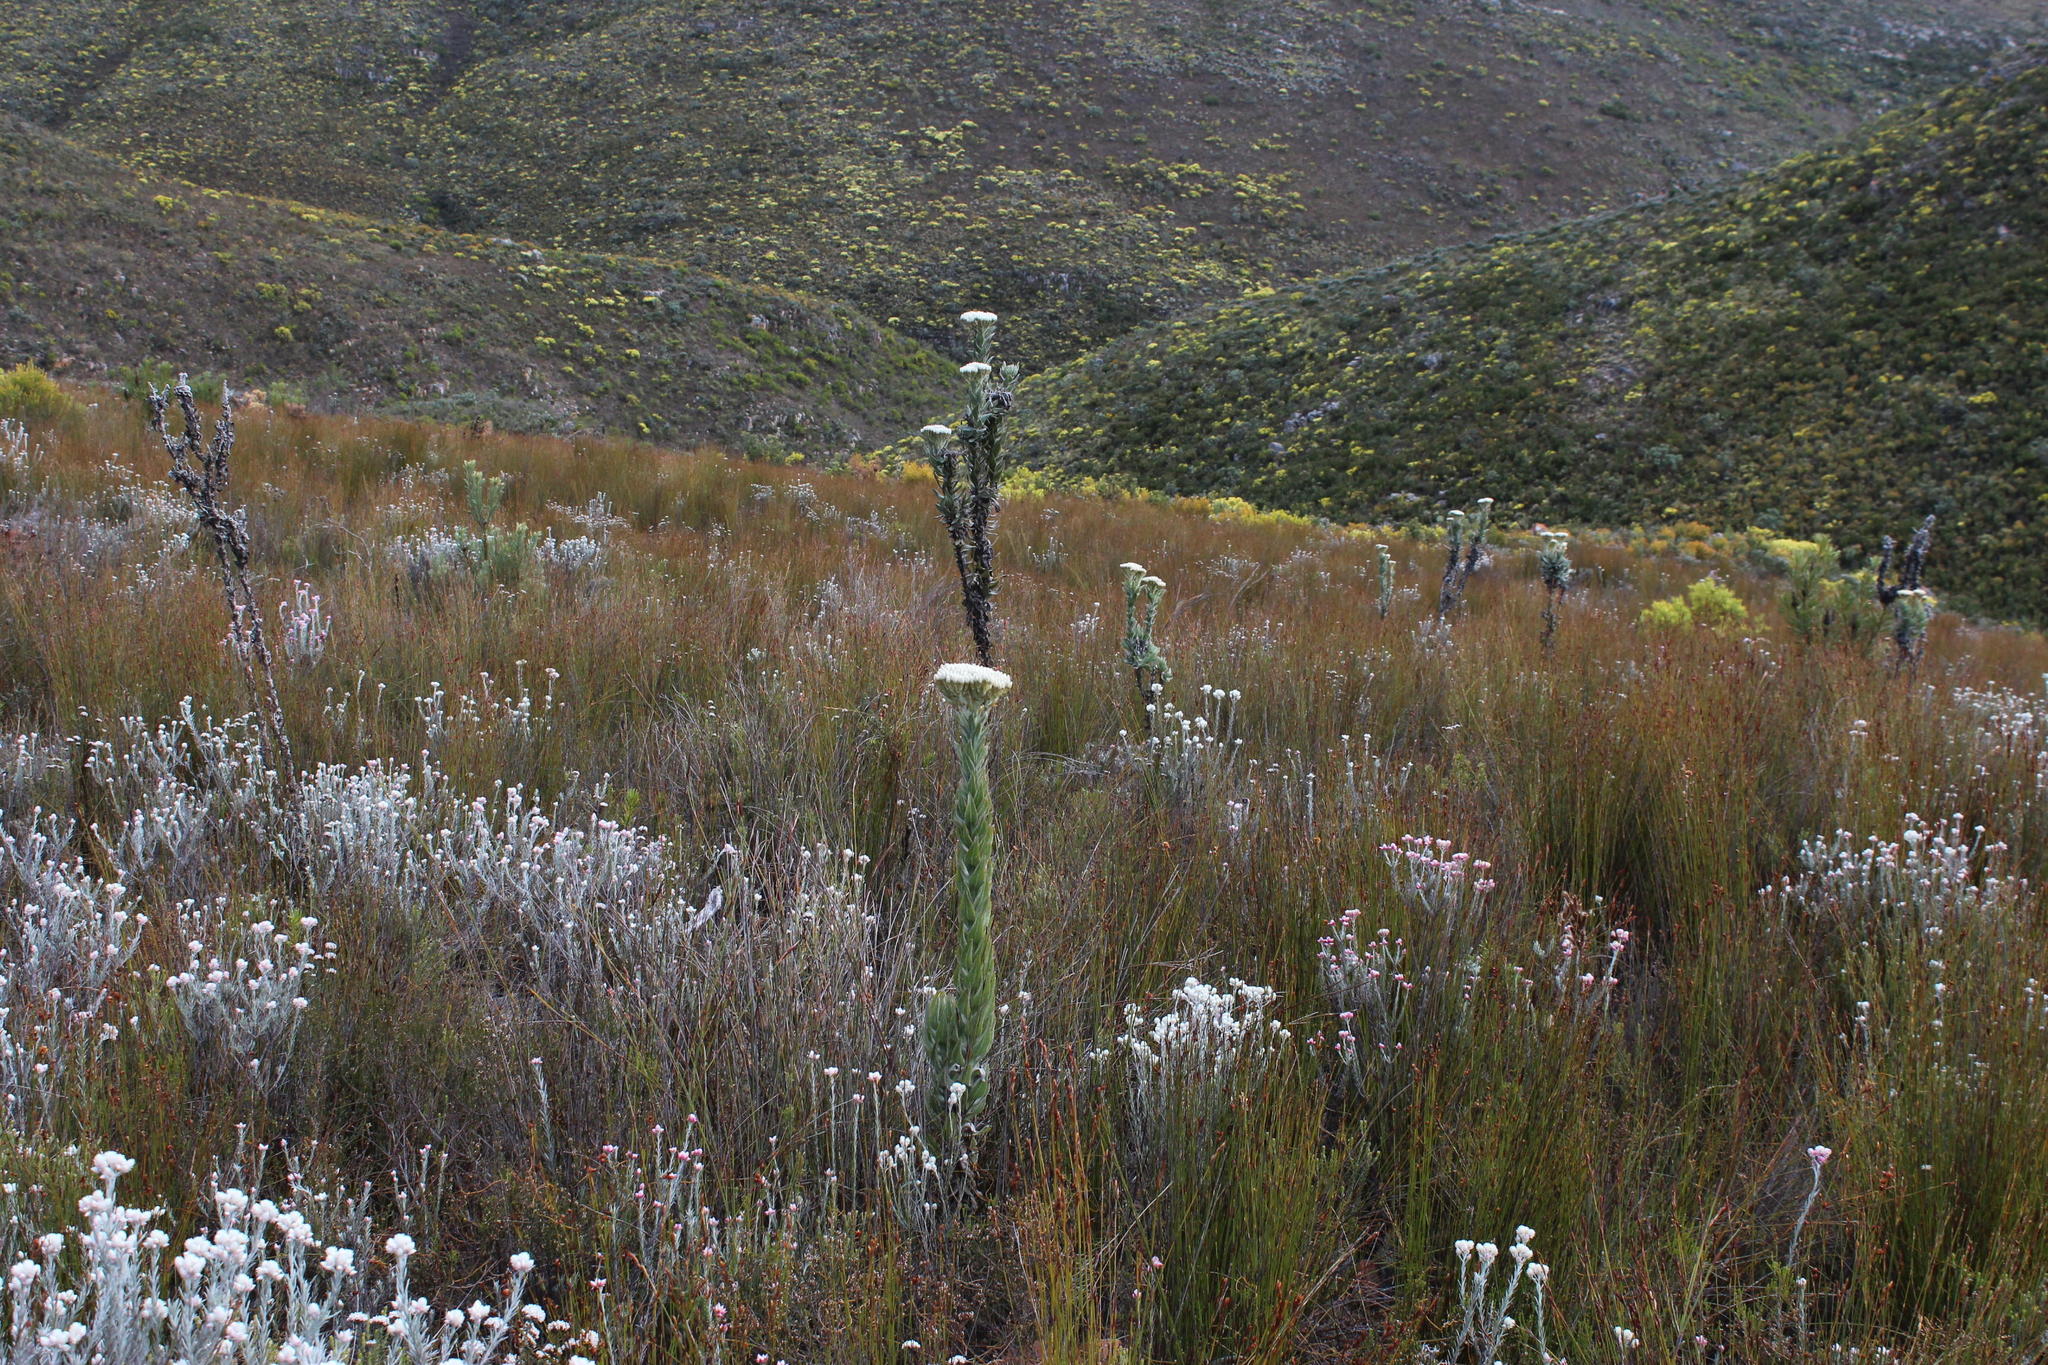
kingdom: Plantae
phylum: Tracheophyta
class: Magnoliopsida
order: Asterales
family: Asteraceae
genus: Syncarpha
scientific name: Syncarpha milleflora
